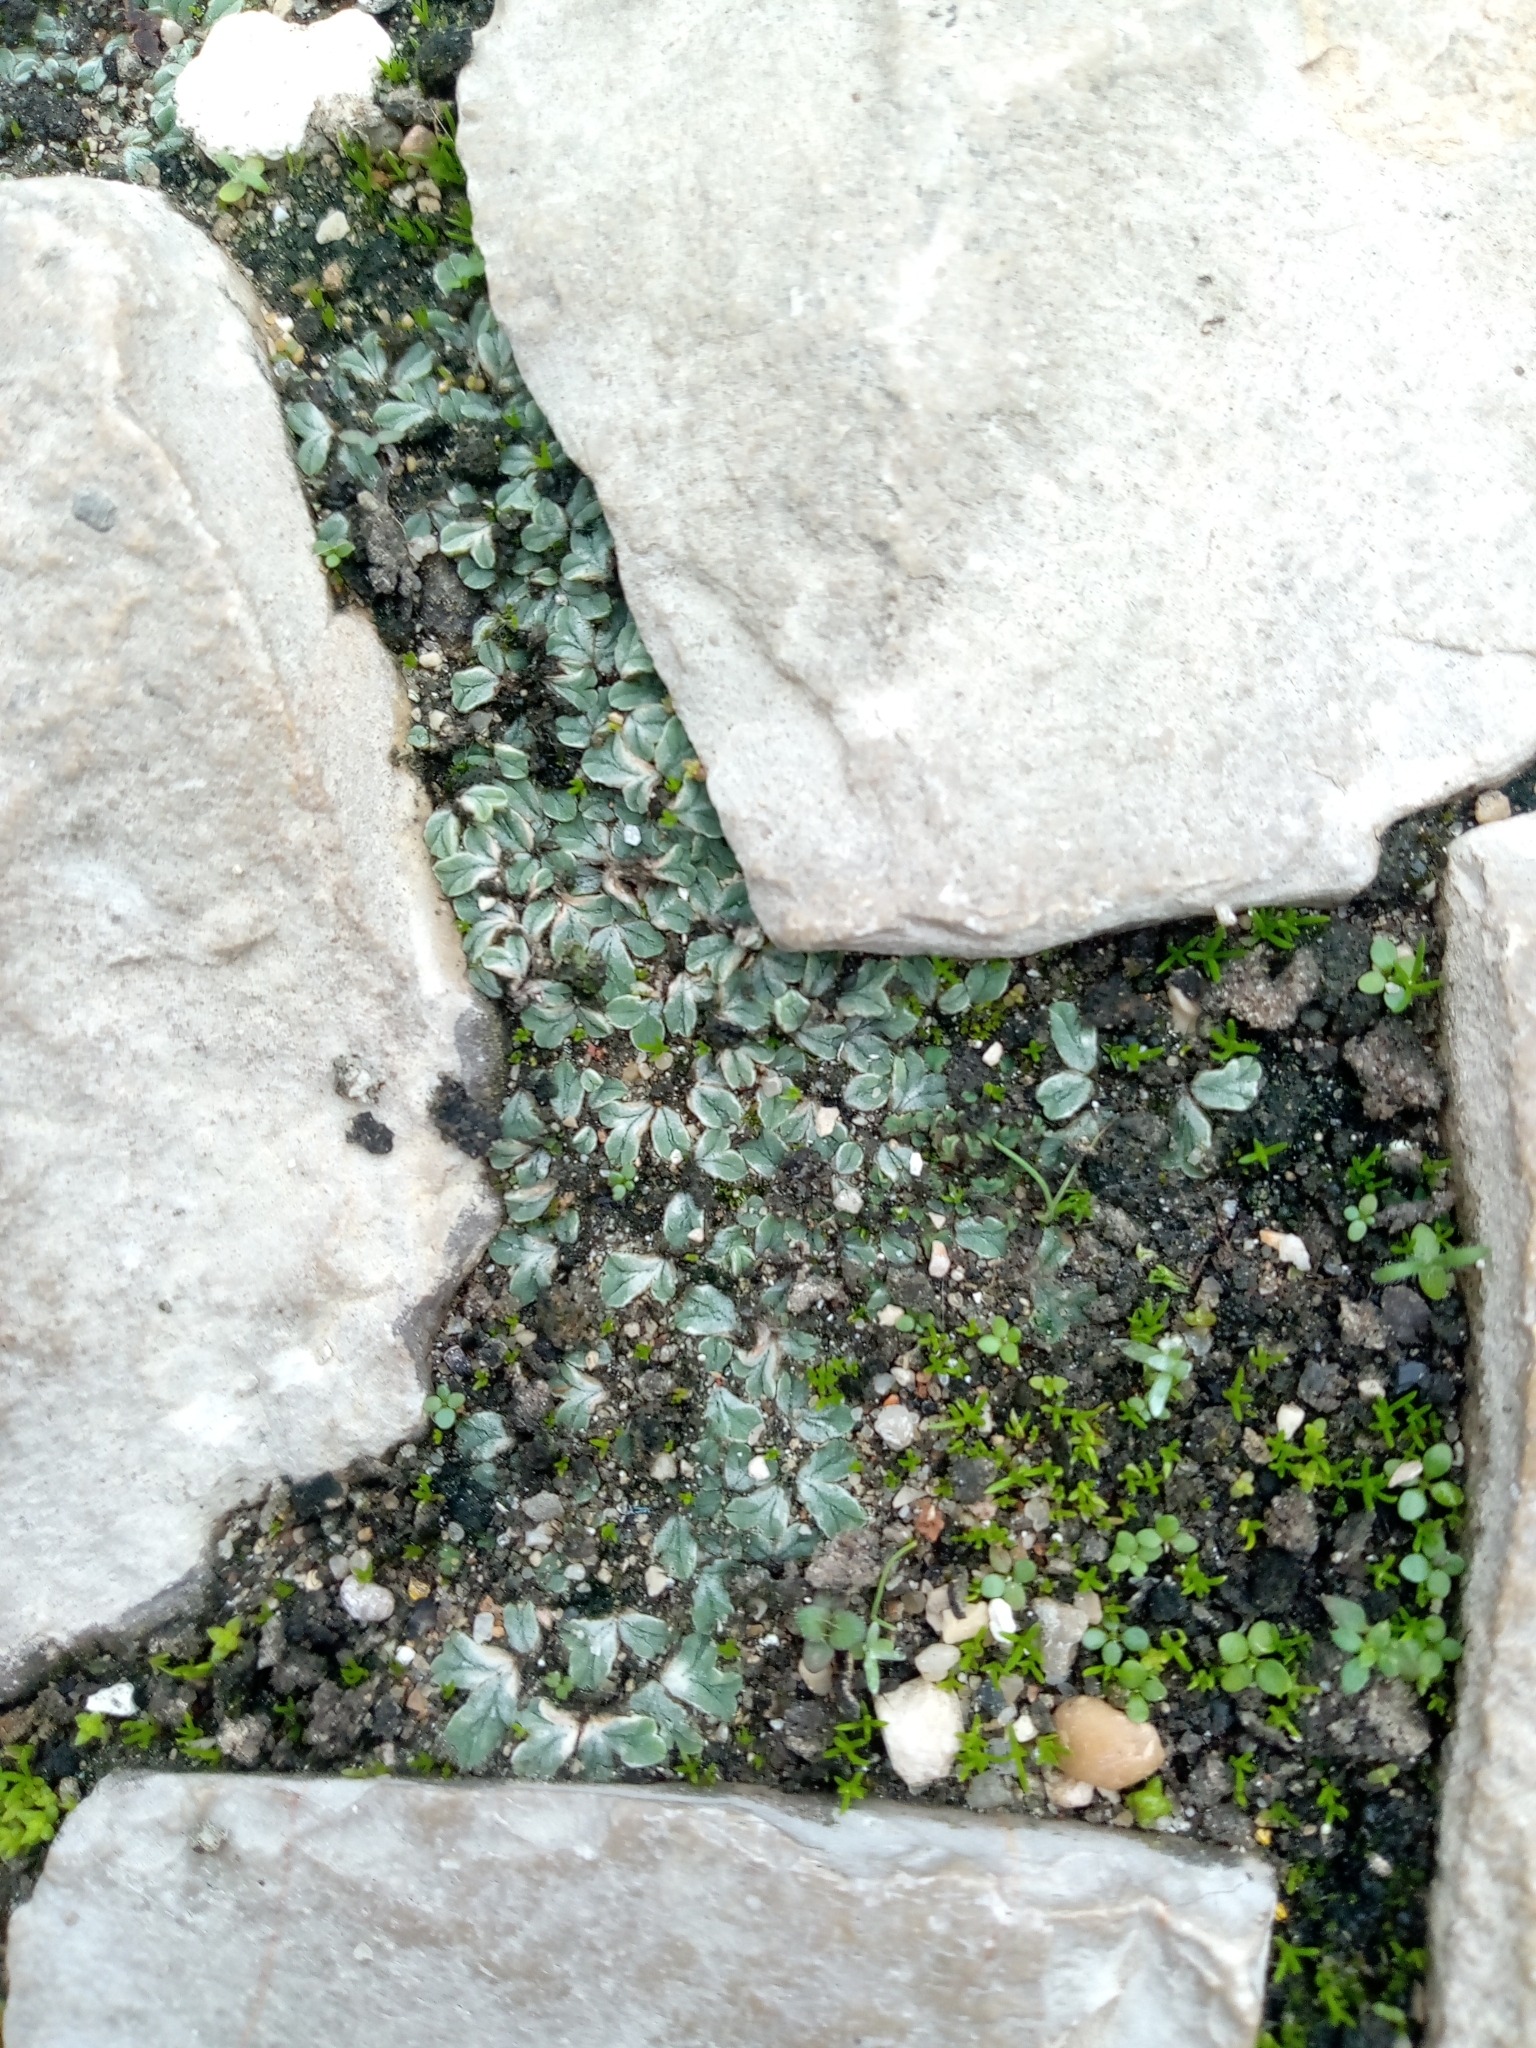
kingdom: Plantae
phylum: Marchantiophyta
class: Marchantiopsida
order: Marchantiales
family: Ricciaceae
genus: Riccia
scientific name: Riccia lamellosa
